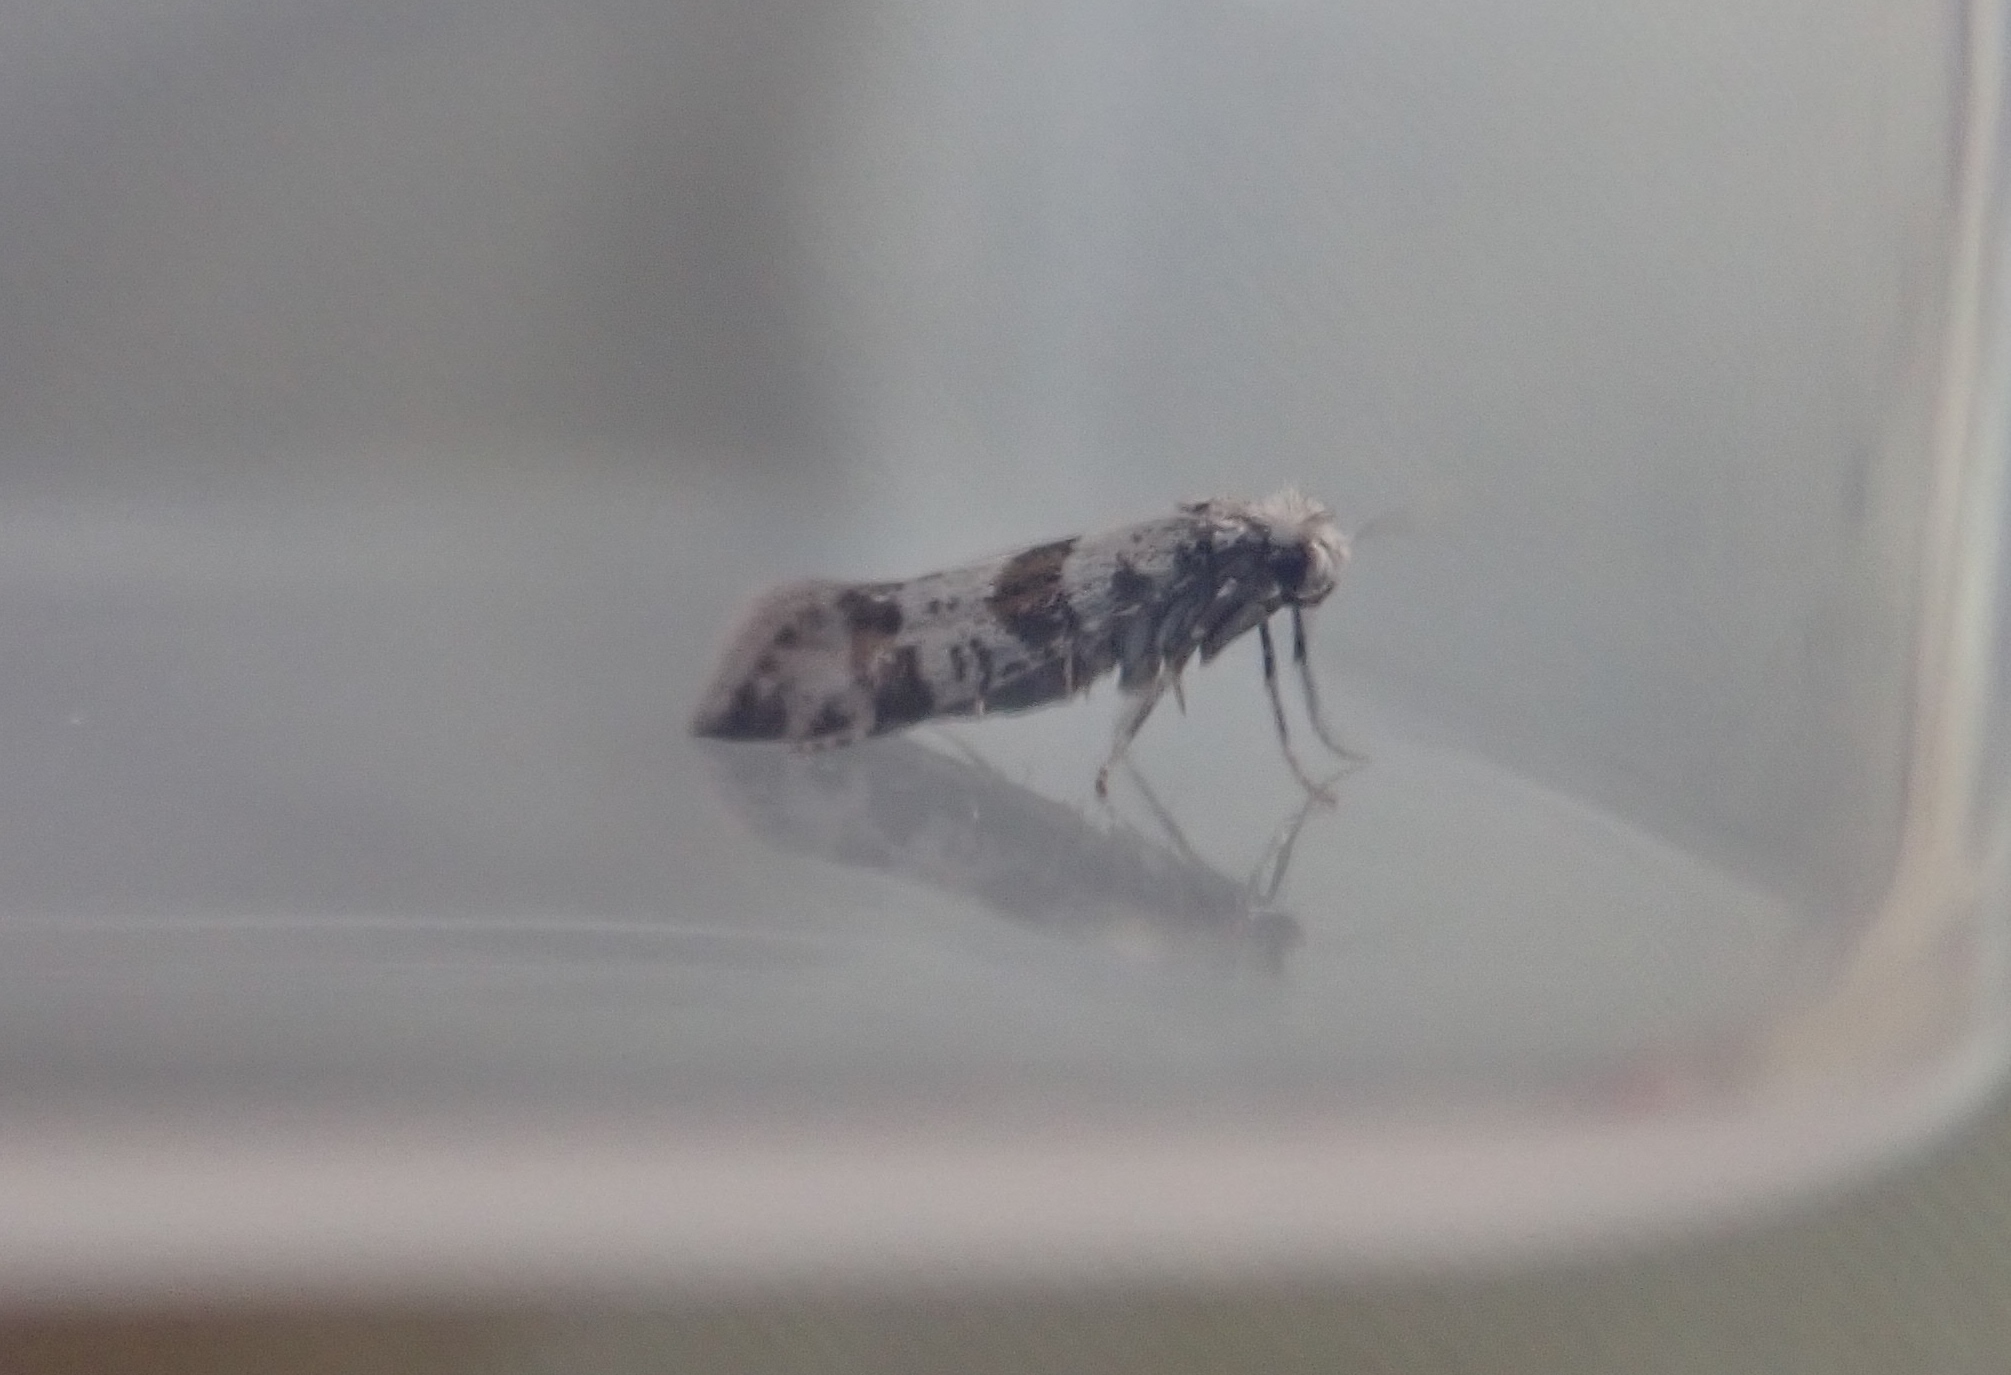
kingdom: Animalia
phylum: Arthropoda
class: Insecta
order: Lepidoptera
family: Yponomeutidae
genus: Scythropia
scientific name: Scythropia crataegella
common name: Hawthorn moth
